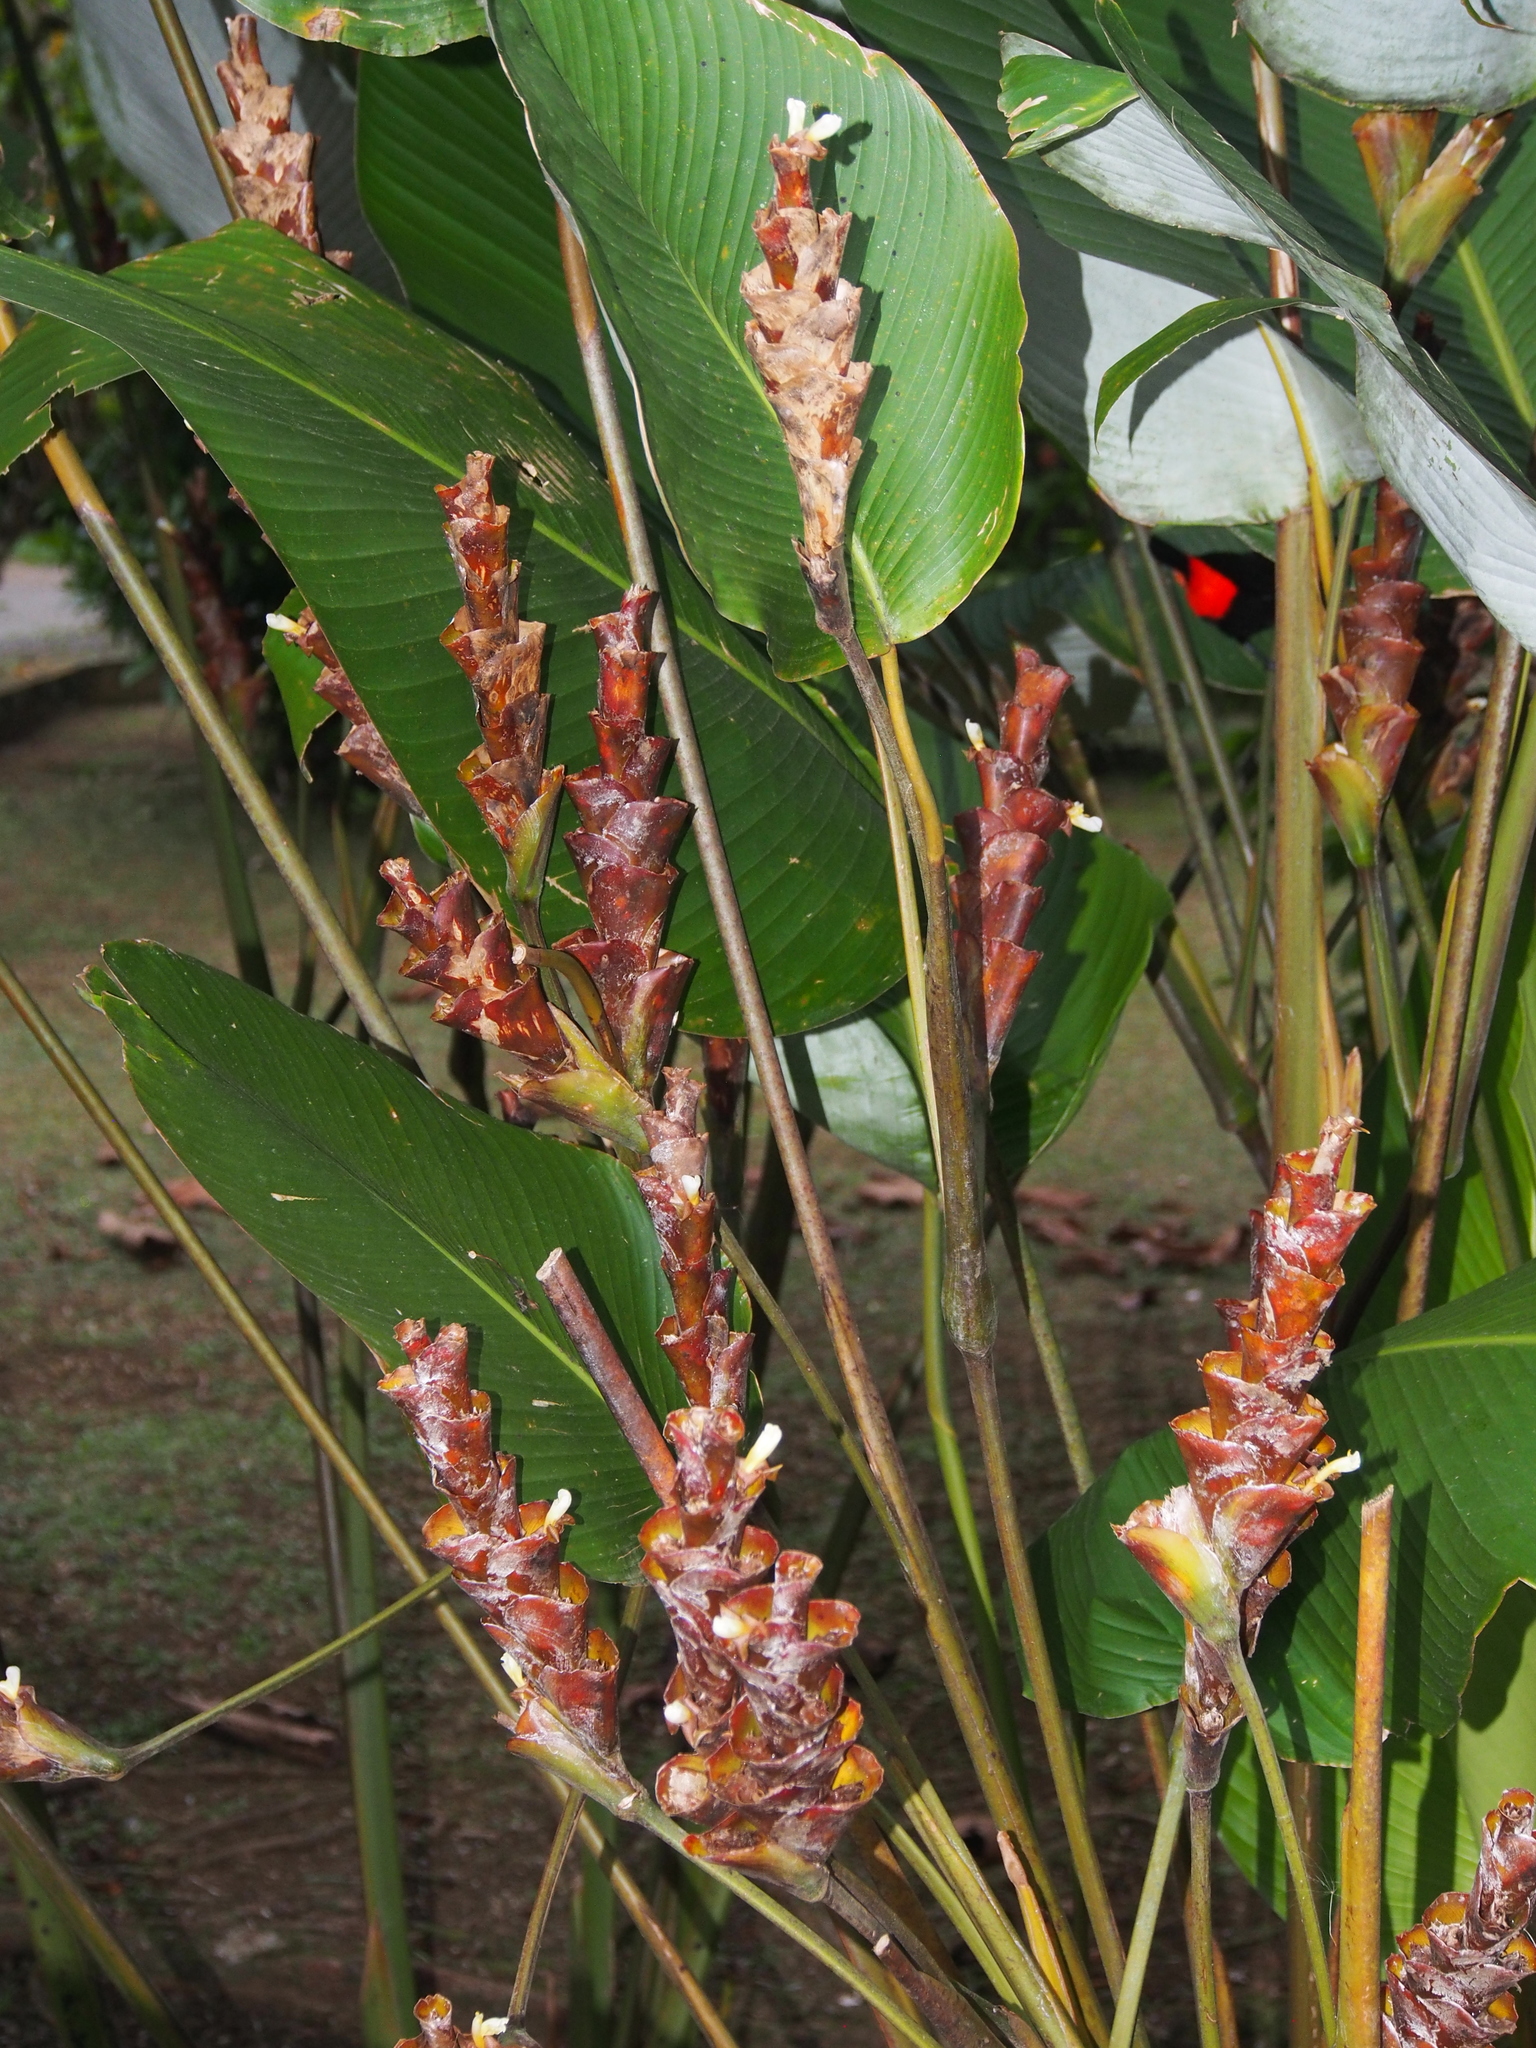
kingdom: Plantae
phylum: Tracheophyta
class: Liliopsida
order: Zingiberales
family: Marantaceae
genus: Calathea
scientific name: Calathea lutea
